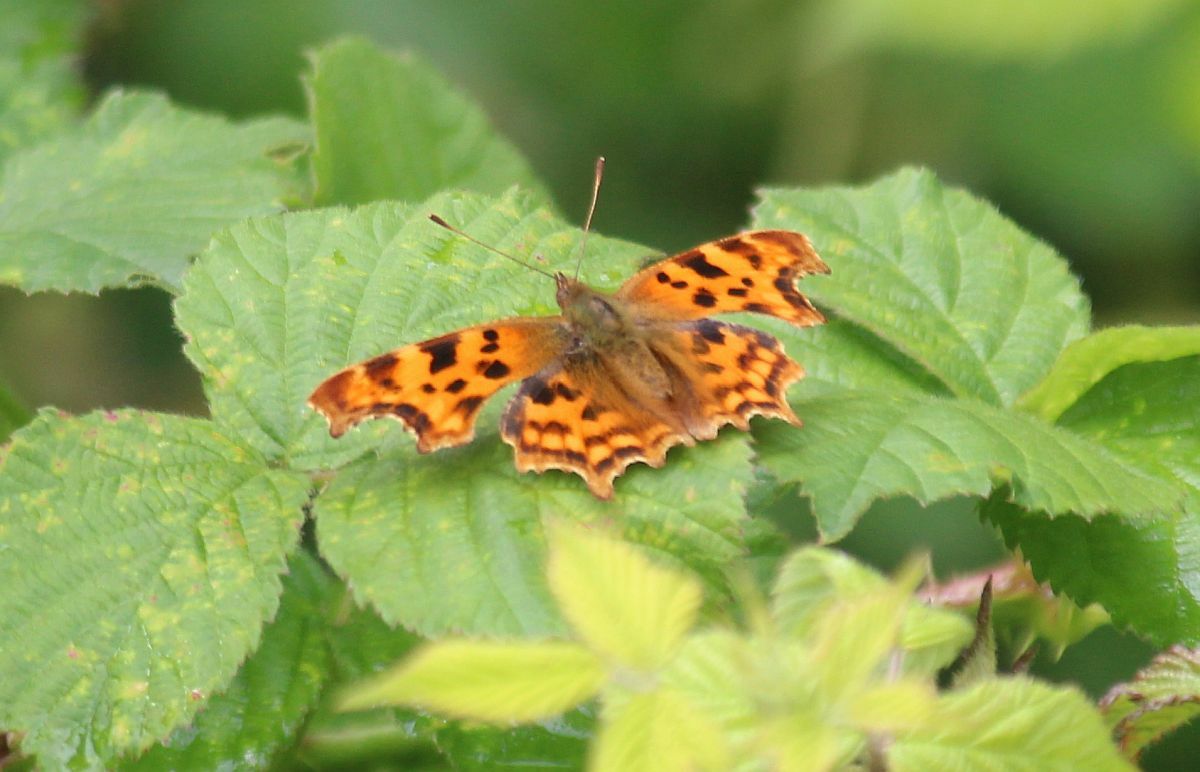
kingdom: Animalia
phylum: Arthropoda
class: Insecta
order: Lepidoptera
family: Nymphalidae
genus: Polygonia
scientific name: Polygonia c-album
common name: Comma
